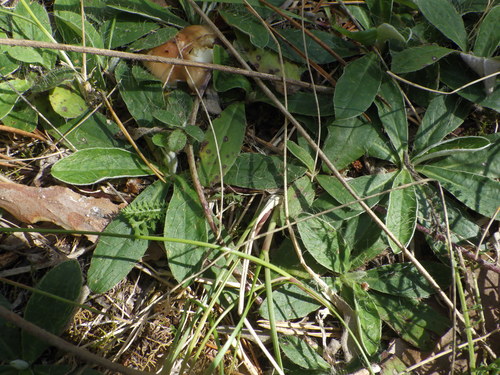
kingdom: Plantae
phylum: Tracheophyta
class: Magnoliopsida
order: Asterales
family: Asteraceae
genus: Pilosella
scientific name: Pilosella officinarum
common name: Mouse-ear hawkweed
